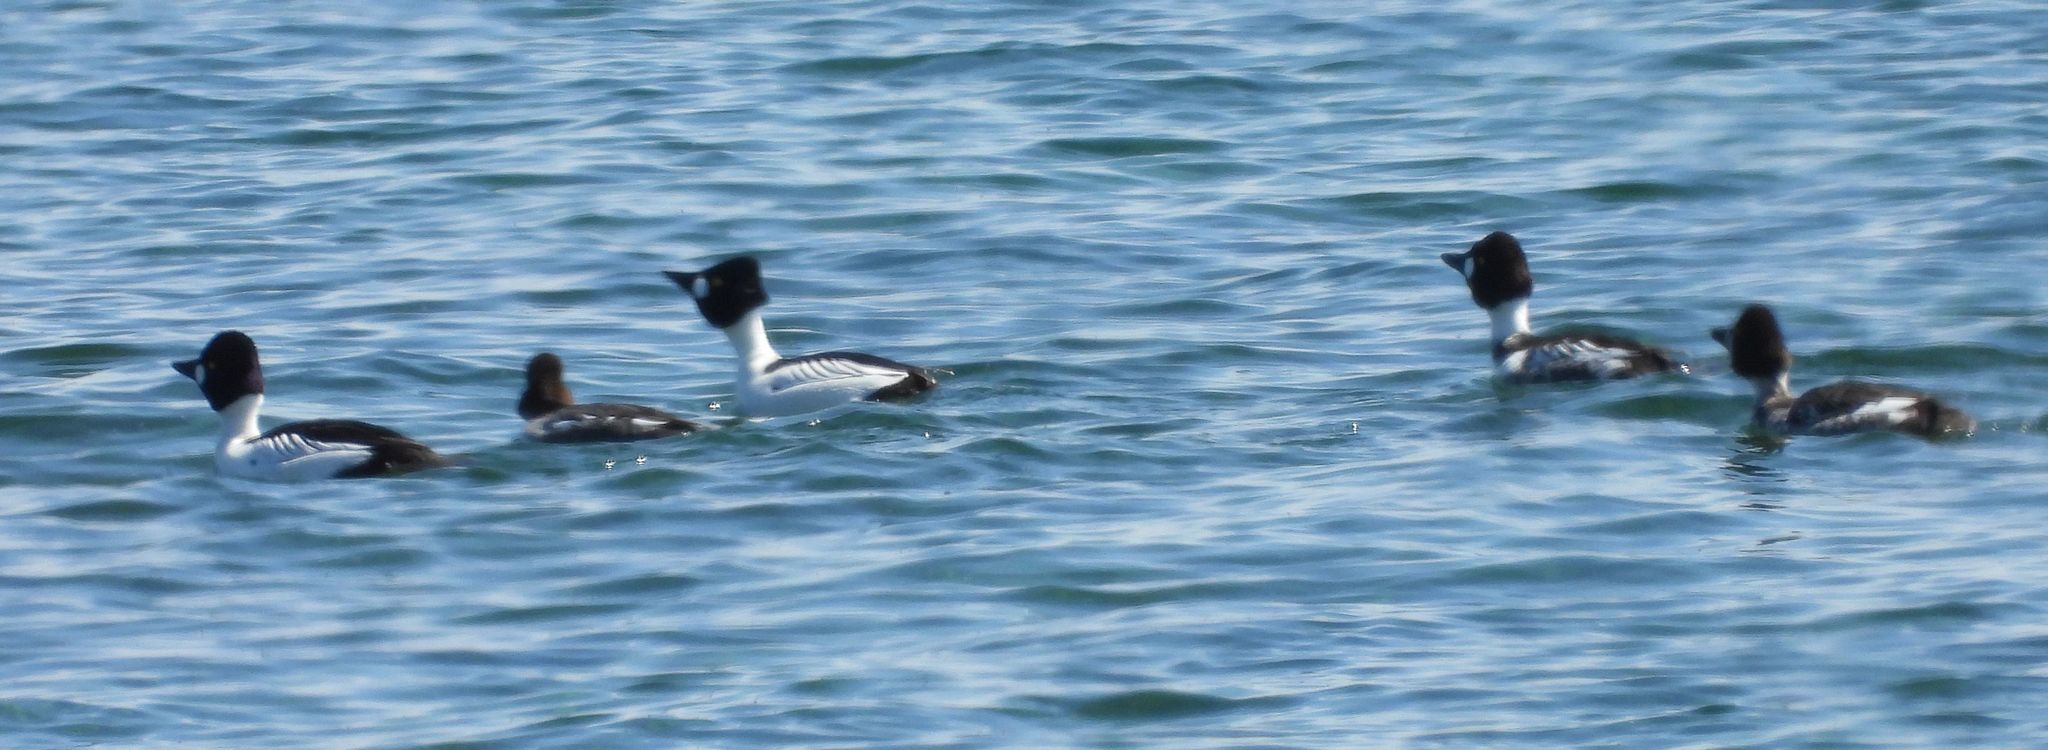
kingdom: Animalia
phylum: Chordata
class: Aves
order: Anseriformes
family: Anatidae
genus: Bucephala
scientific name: Bucephala clangula
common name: Common goldeneye
